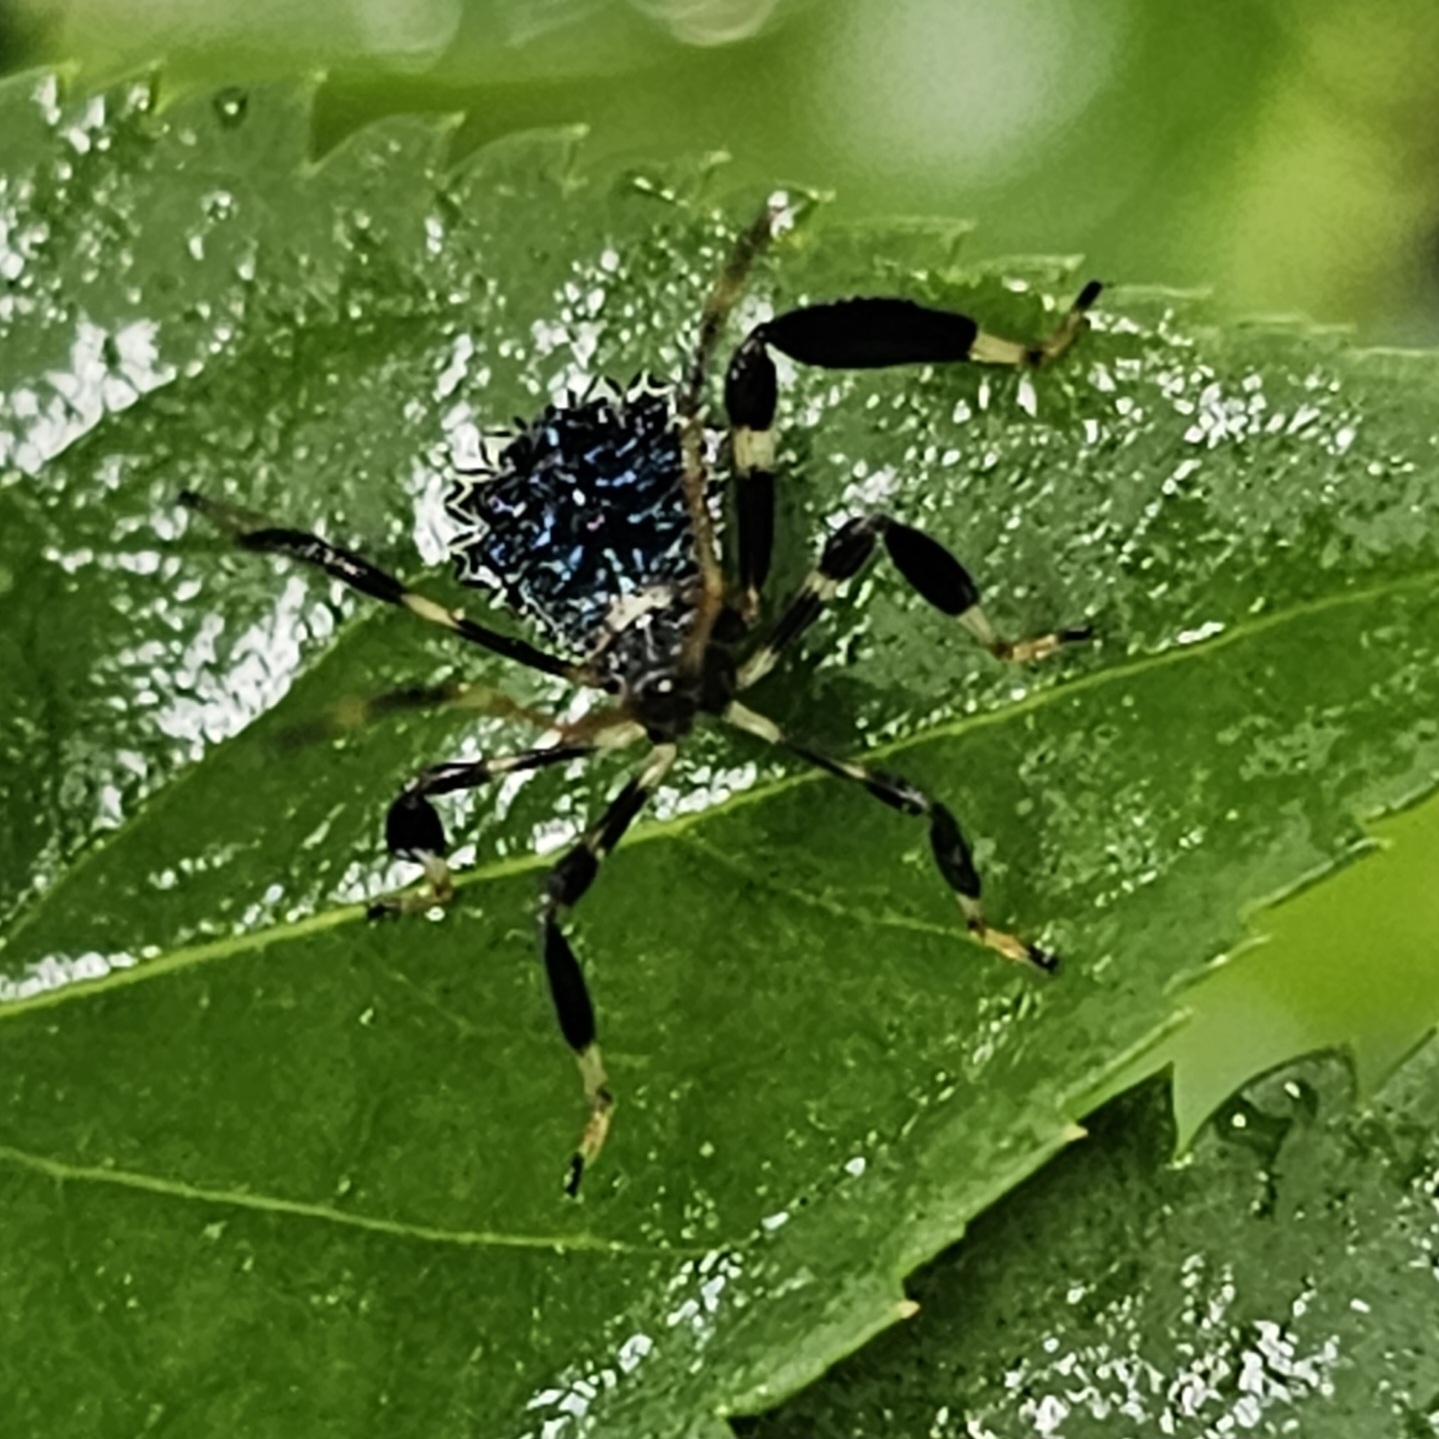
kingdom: Animalia
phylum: Arthropoda
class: Insecta
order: Hemiptera
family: Coreidae
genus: Acanthocephala
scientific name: Acanthocephala terminalis
